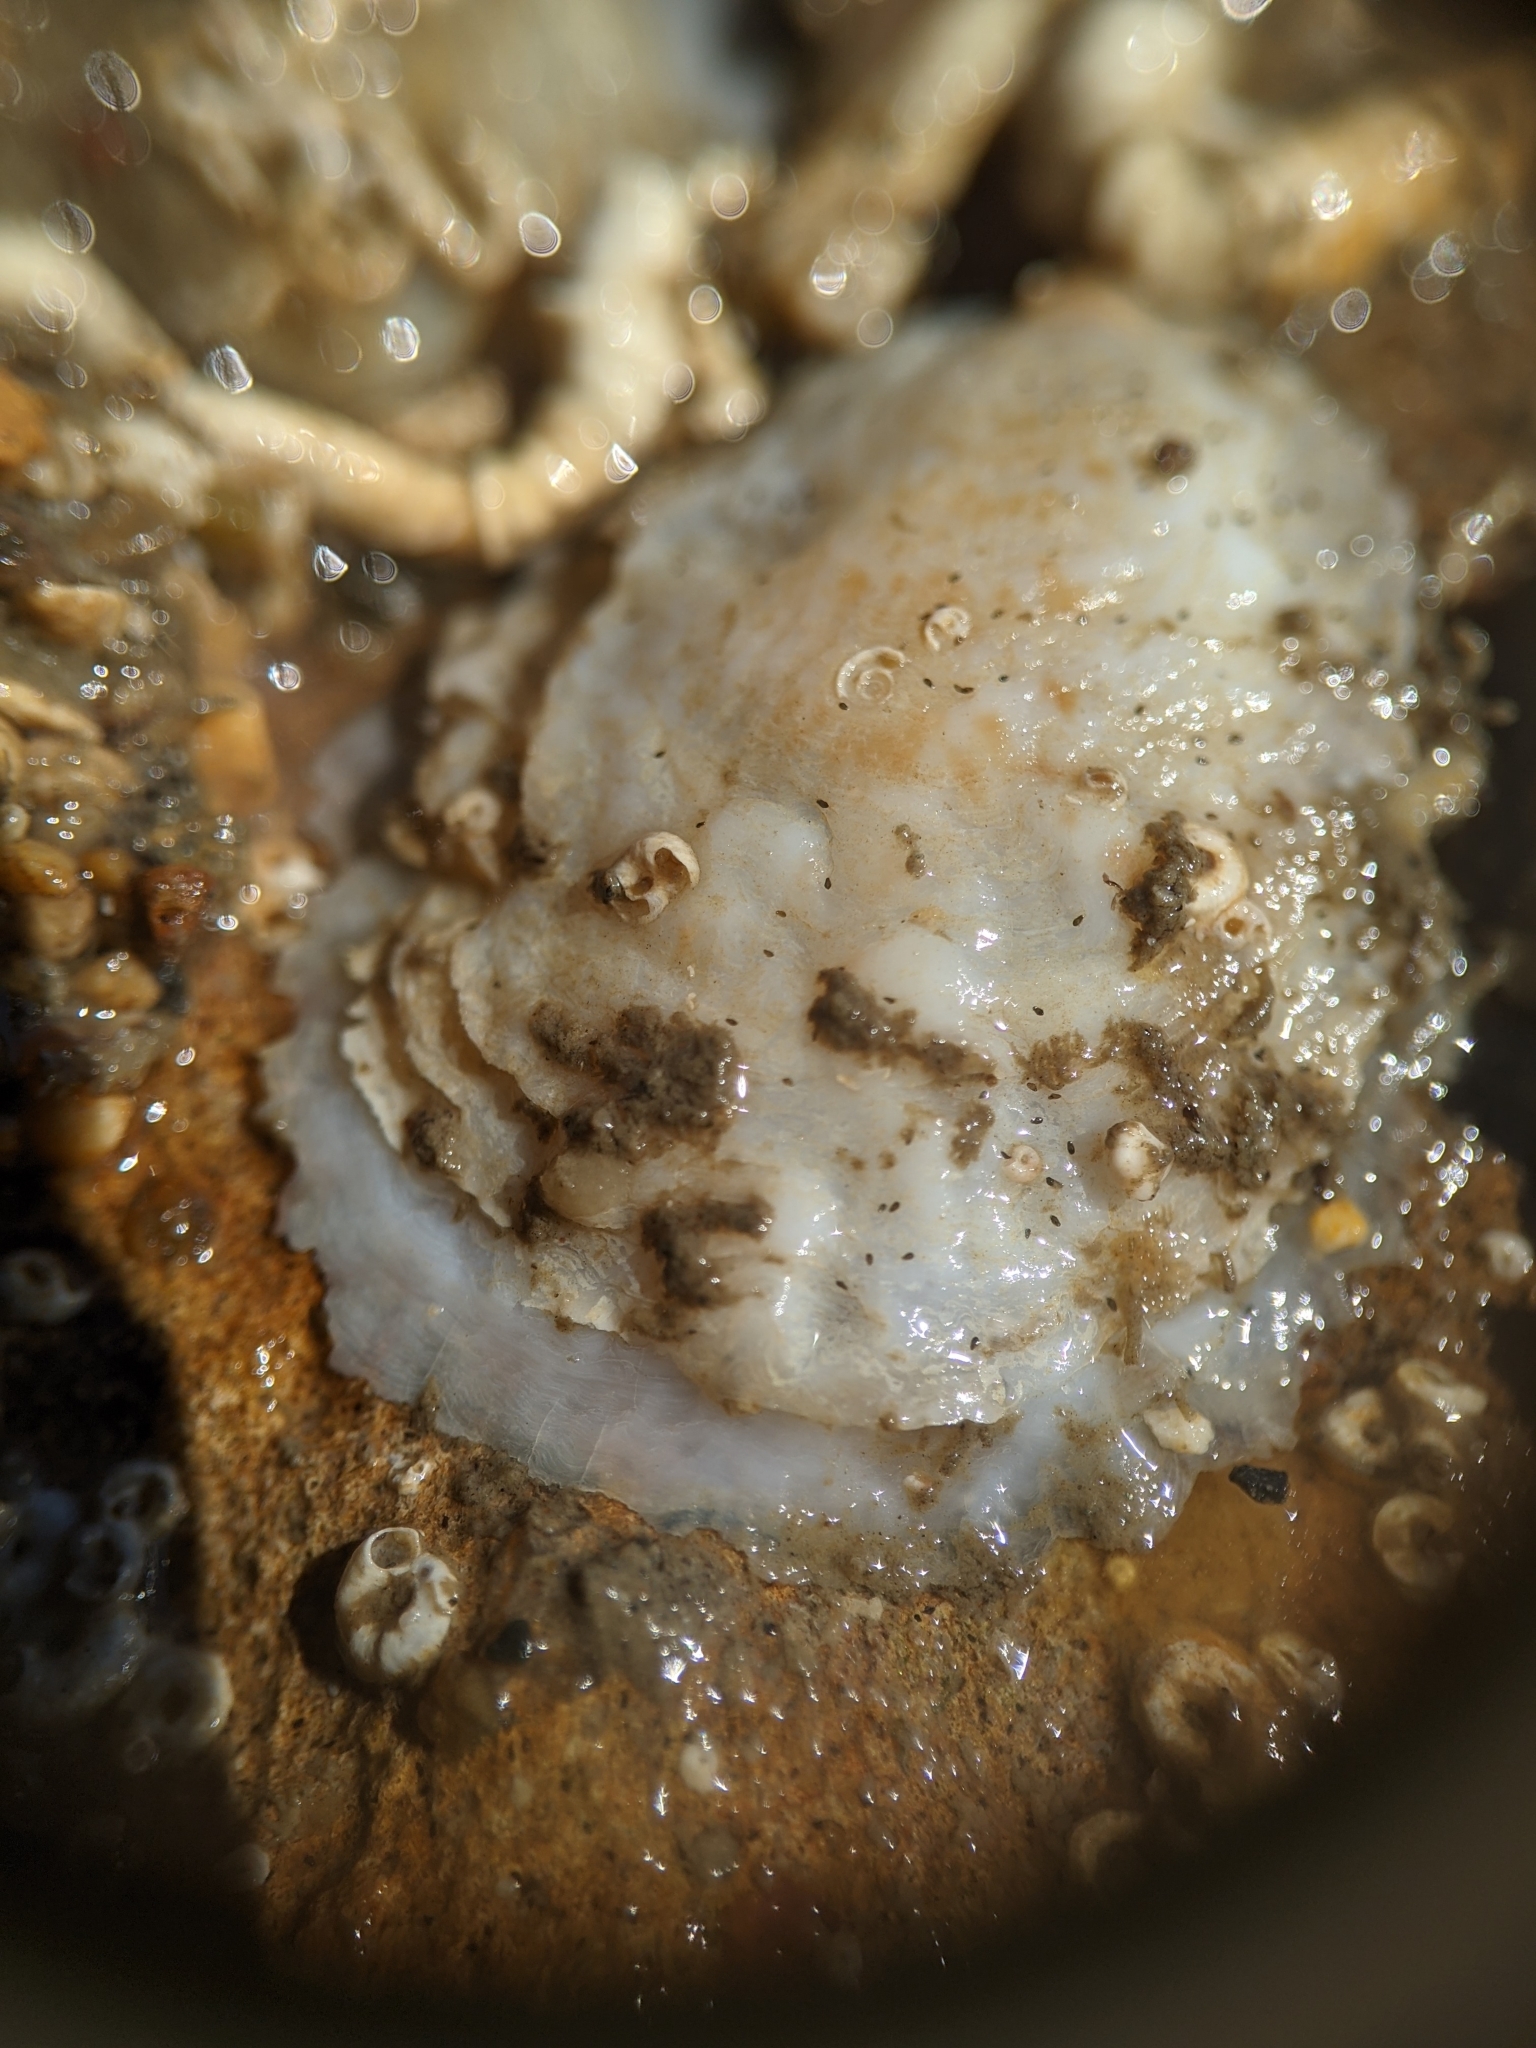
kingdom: Animalia
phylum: Mollusca
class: Gastropoda
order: Littorinimorpha
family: Calyptraeidae
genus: Crepipatella
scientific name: Crepipatella lingulata
